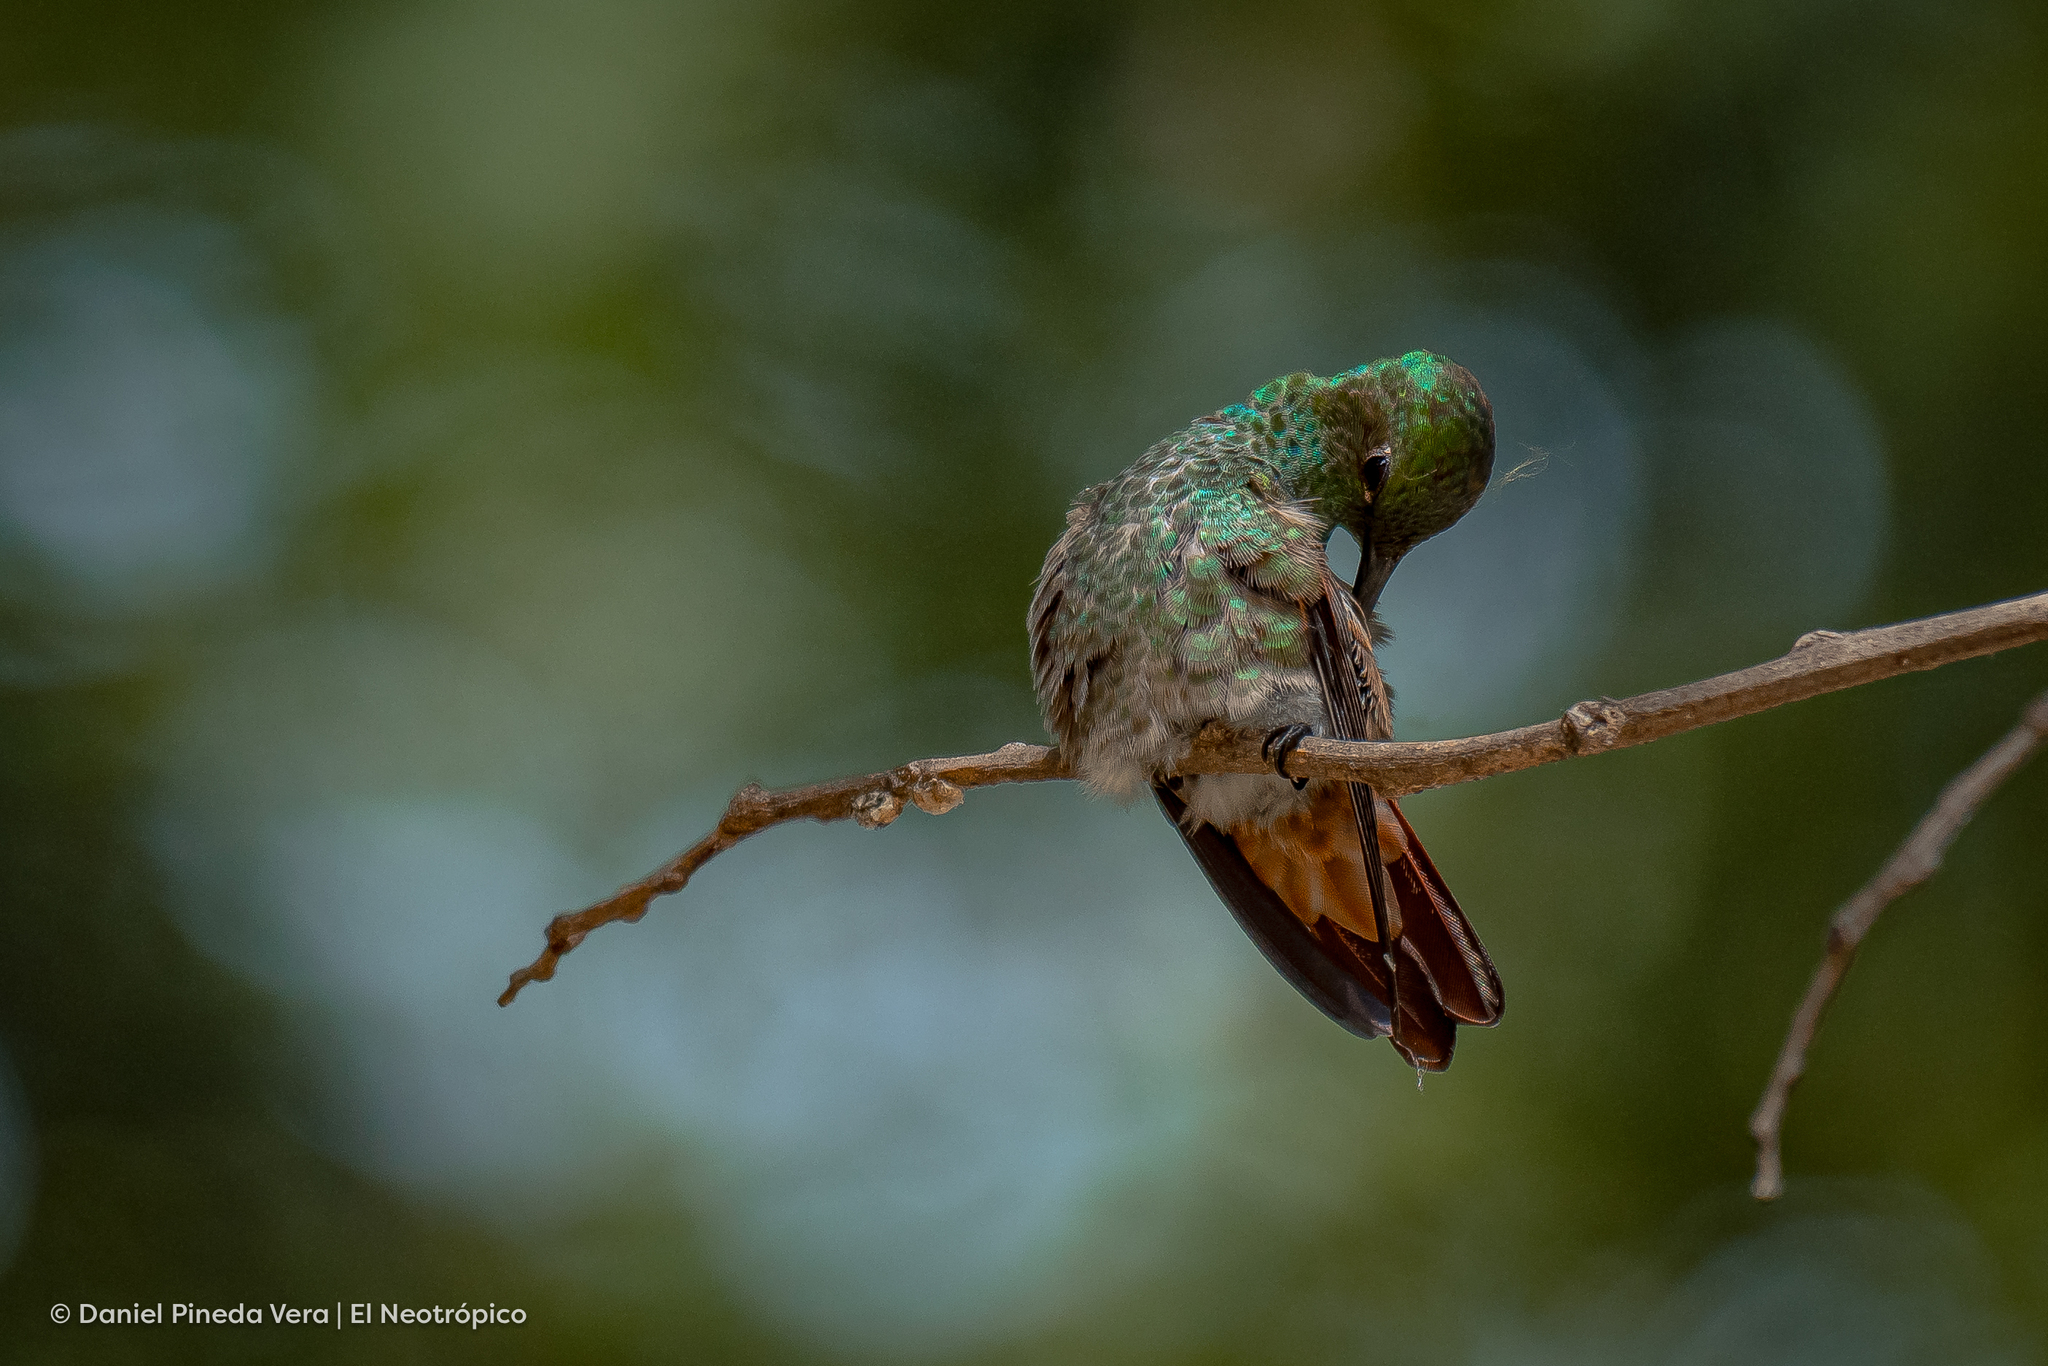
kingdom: Animalia
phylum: Chordata
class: Aves
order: Apodiformes
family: Trochilidae
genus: Saucerottia
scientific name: Saucerottia beryllina
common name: Berylline hummingbird
